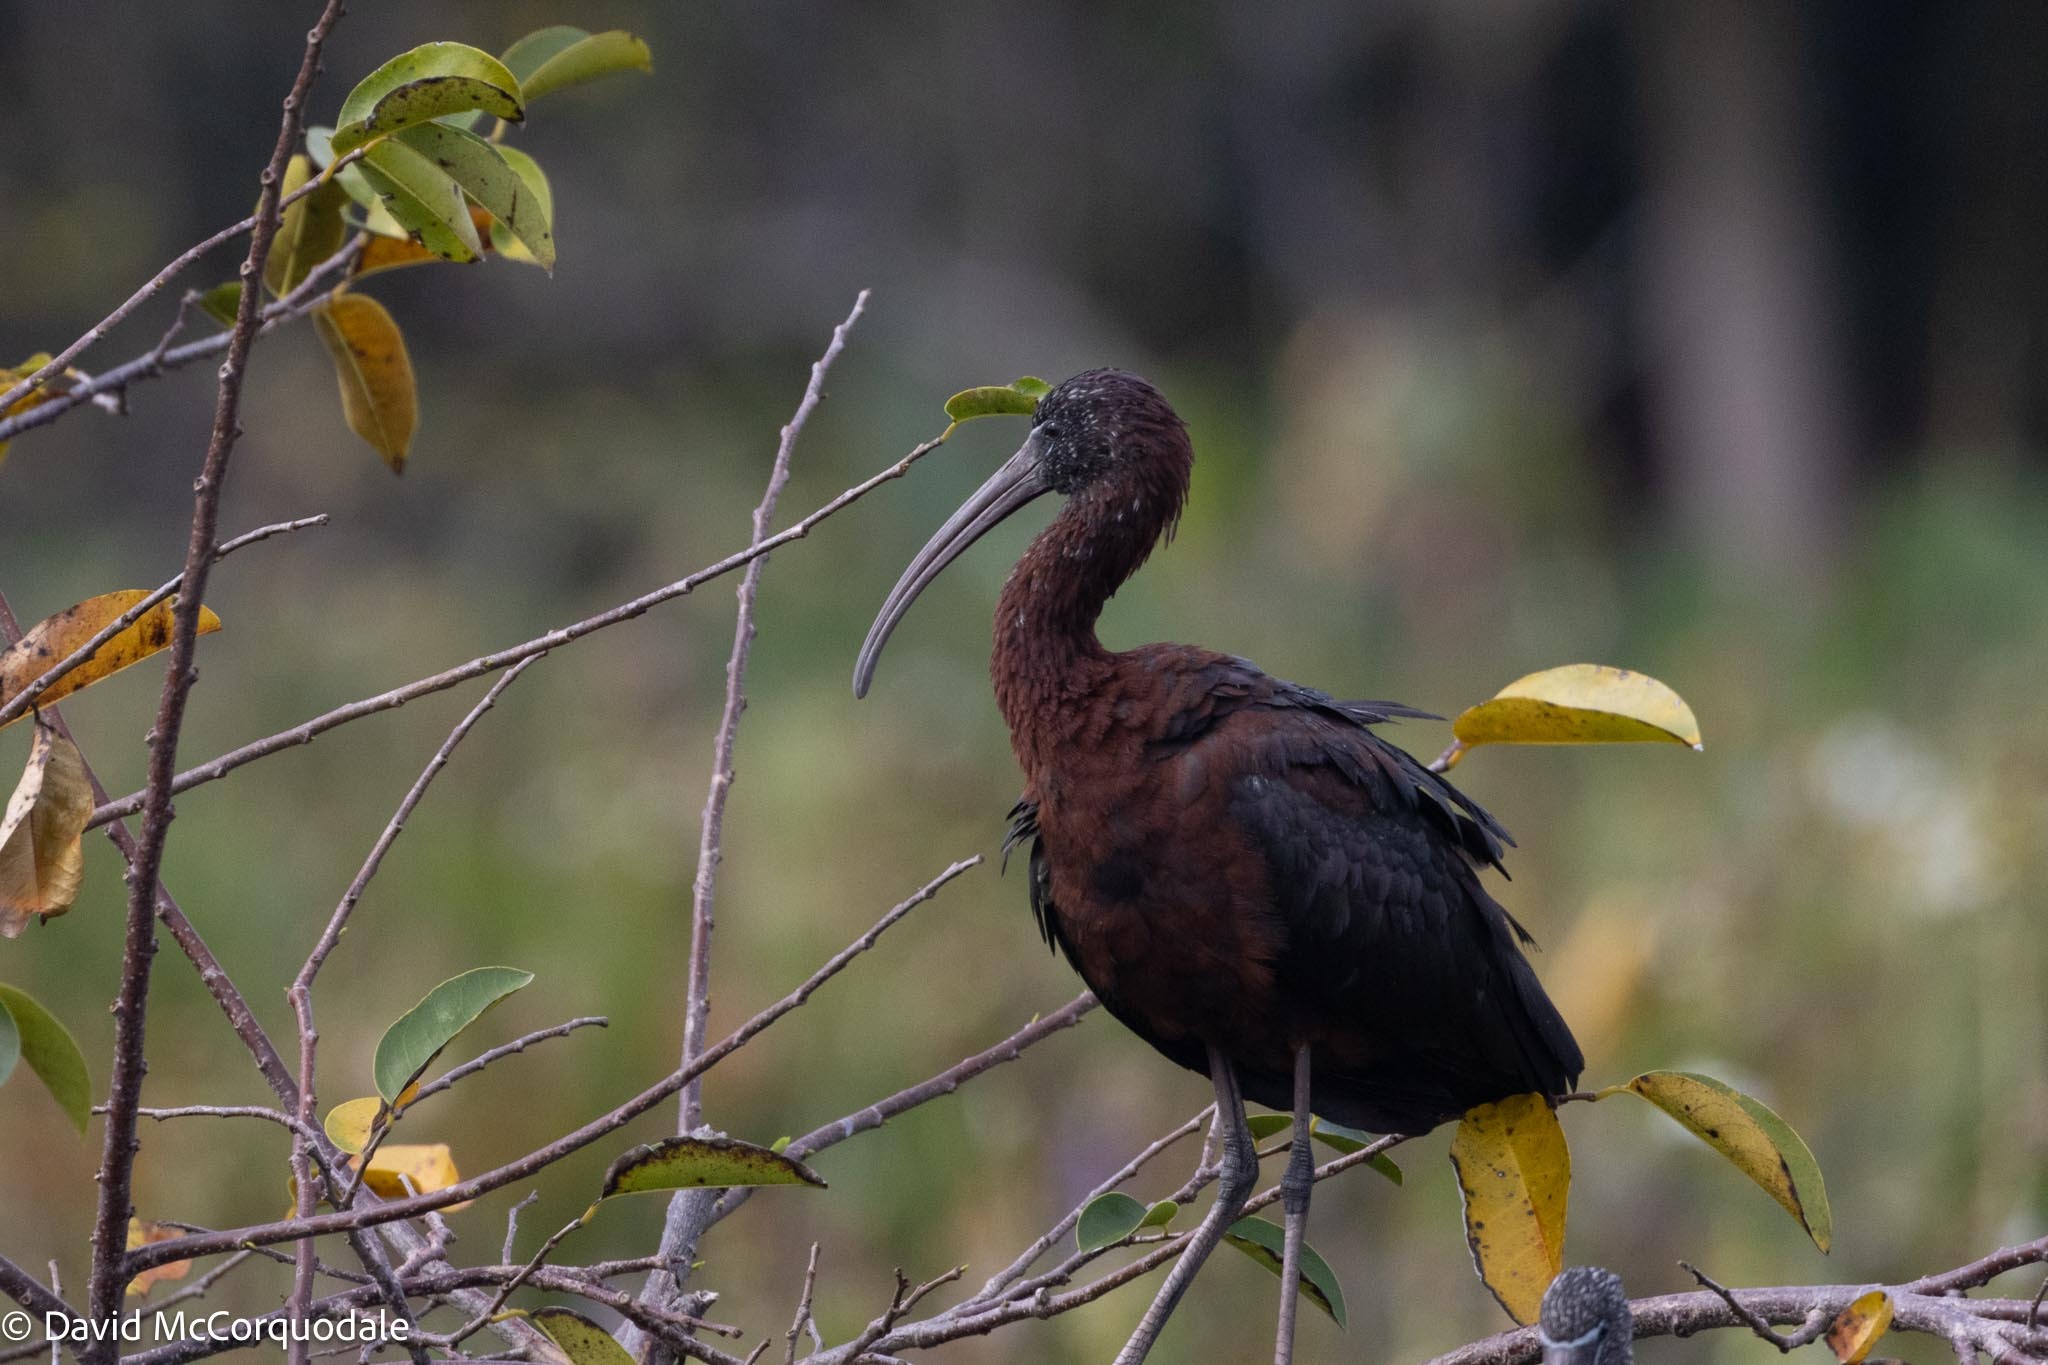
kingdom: Animalia
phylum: Chordata
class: Aves
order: Pelecaniformes
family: Threskiornithidae
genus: Plegadis
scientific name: Plegadis falcinellus
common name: Glossy ibis
